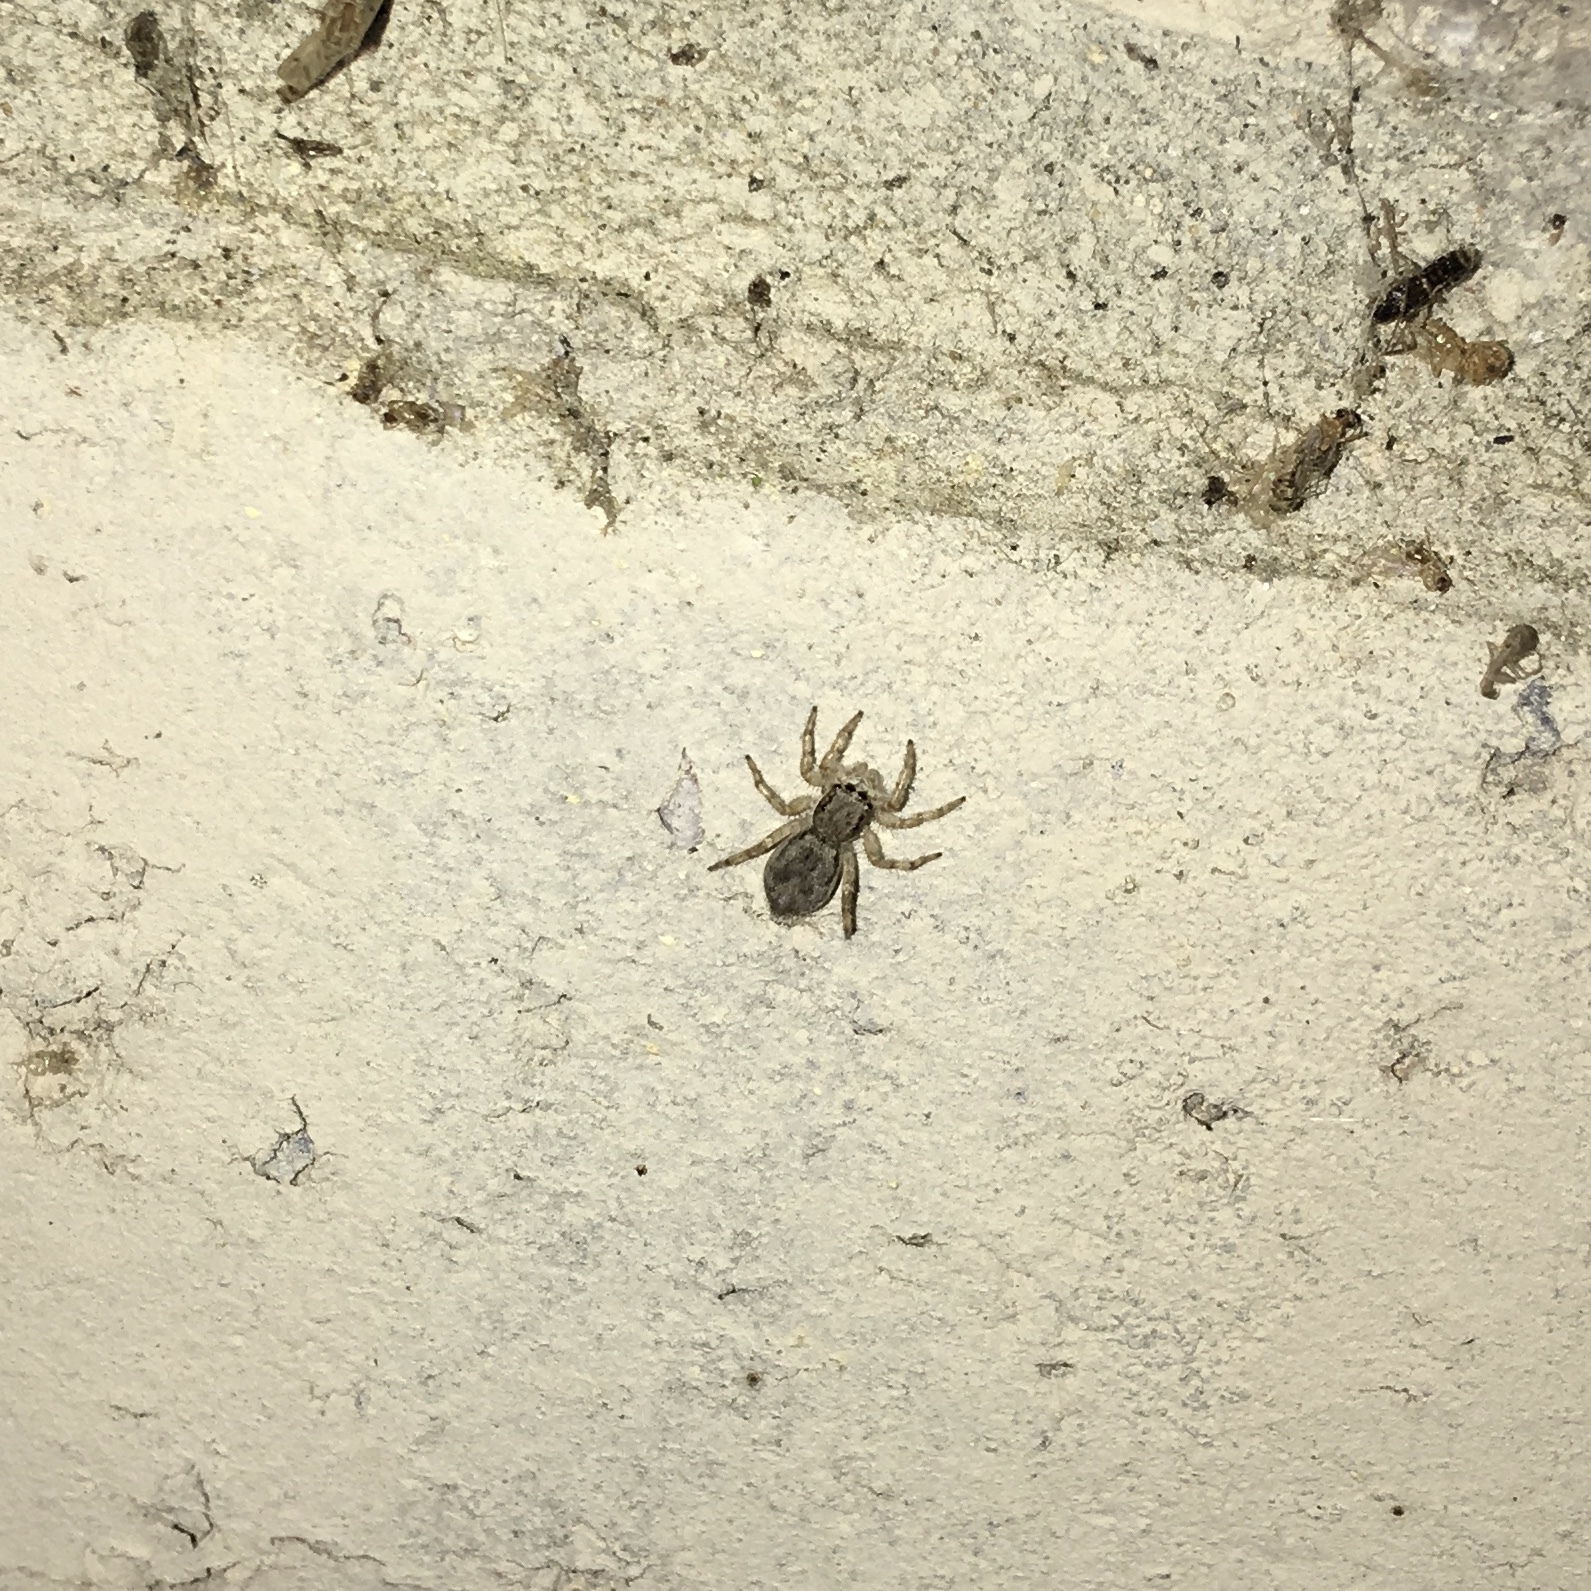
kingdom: Animalia
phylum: Arthropoda
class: Arachnida
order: Araneae
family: Salticidae
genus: Menemerus
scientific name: Menemerus bivittatus
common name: Gray wall jumper
